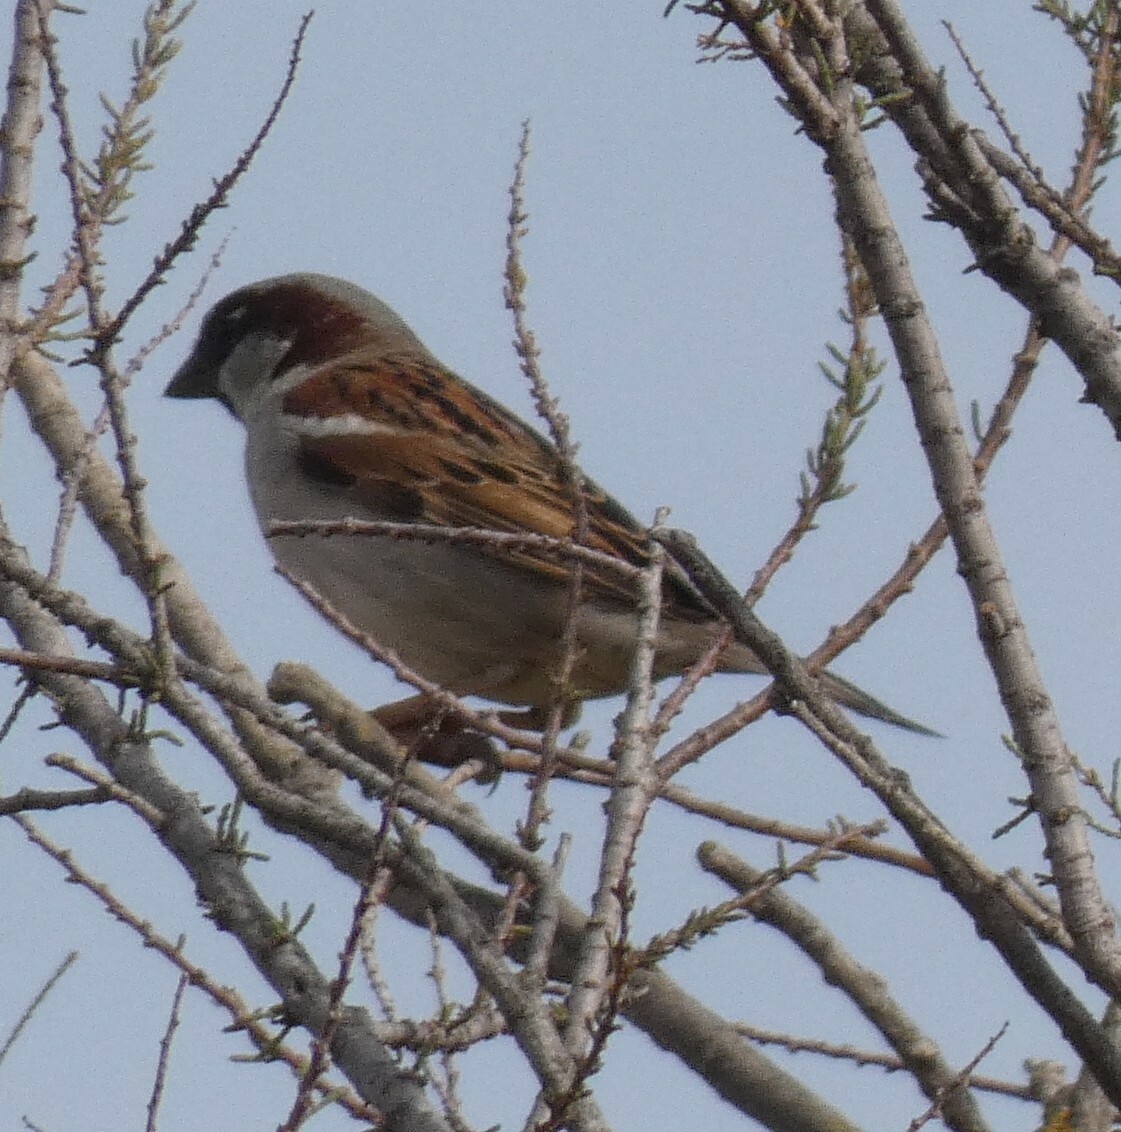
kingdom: Animalia
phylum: Chordata
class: Aves
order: Passeriformes
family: Passeridae
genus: Passer
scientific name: Passer domesticus
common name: House sparrow
